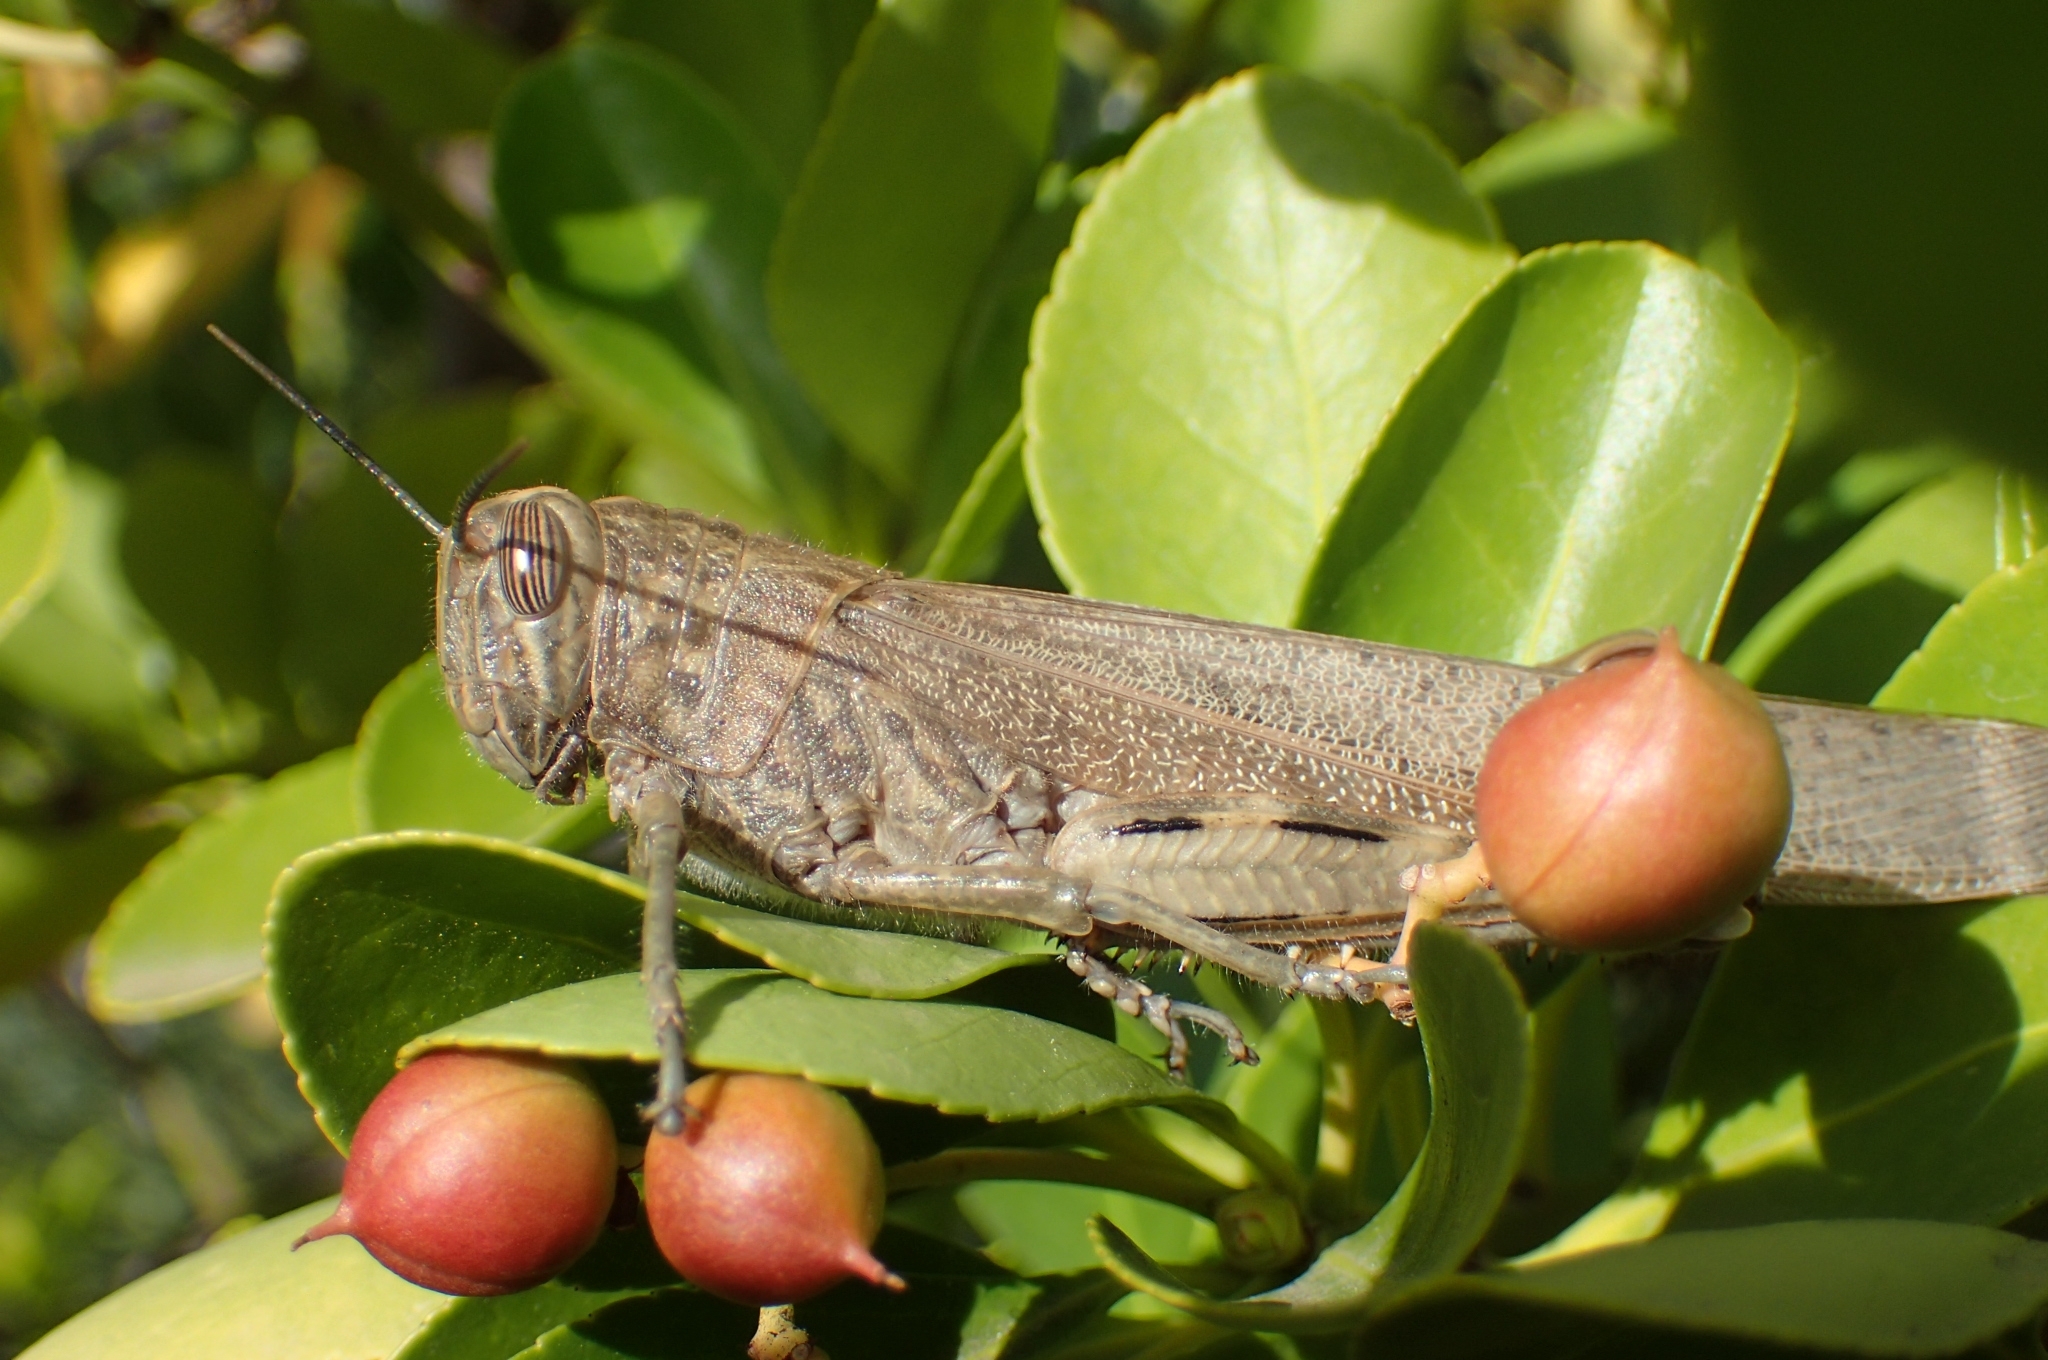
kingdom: Animalia
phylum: Arthropoda
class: Insecta
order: Orthoptera
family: Acrididae
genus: Anacridium
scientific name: Anacridium aegyptium
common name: Egyptian grasshopper
